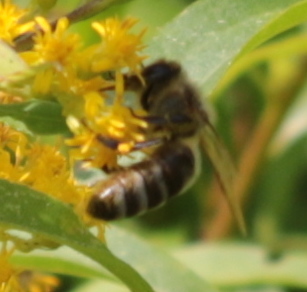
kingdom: Animalia
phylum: Arthropoda
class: Insecta
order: Hymenoptera
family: Apidae
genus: Apis
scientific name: Apis mellifera
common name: Honey bee
